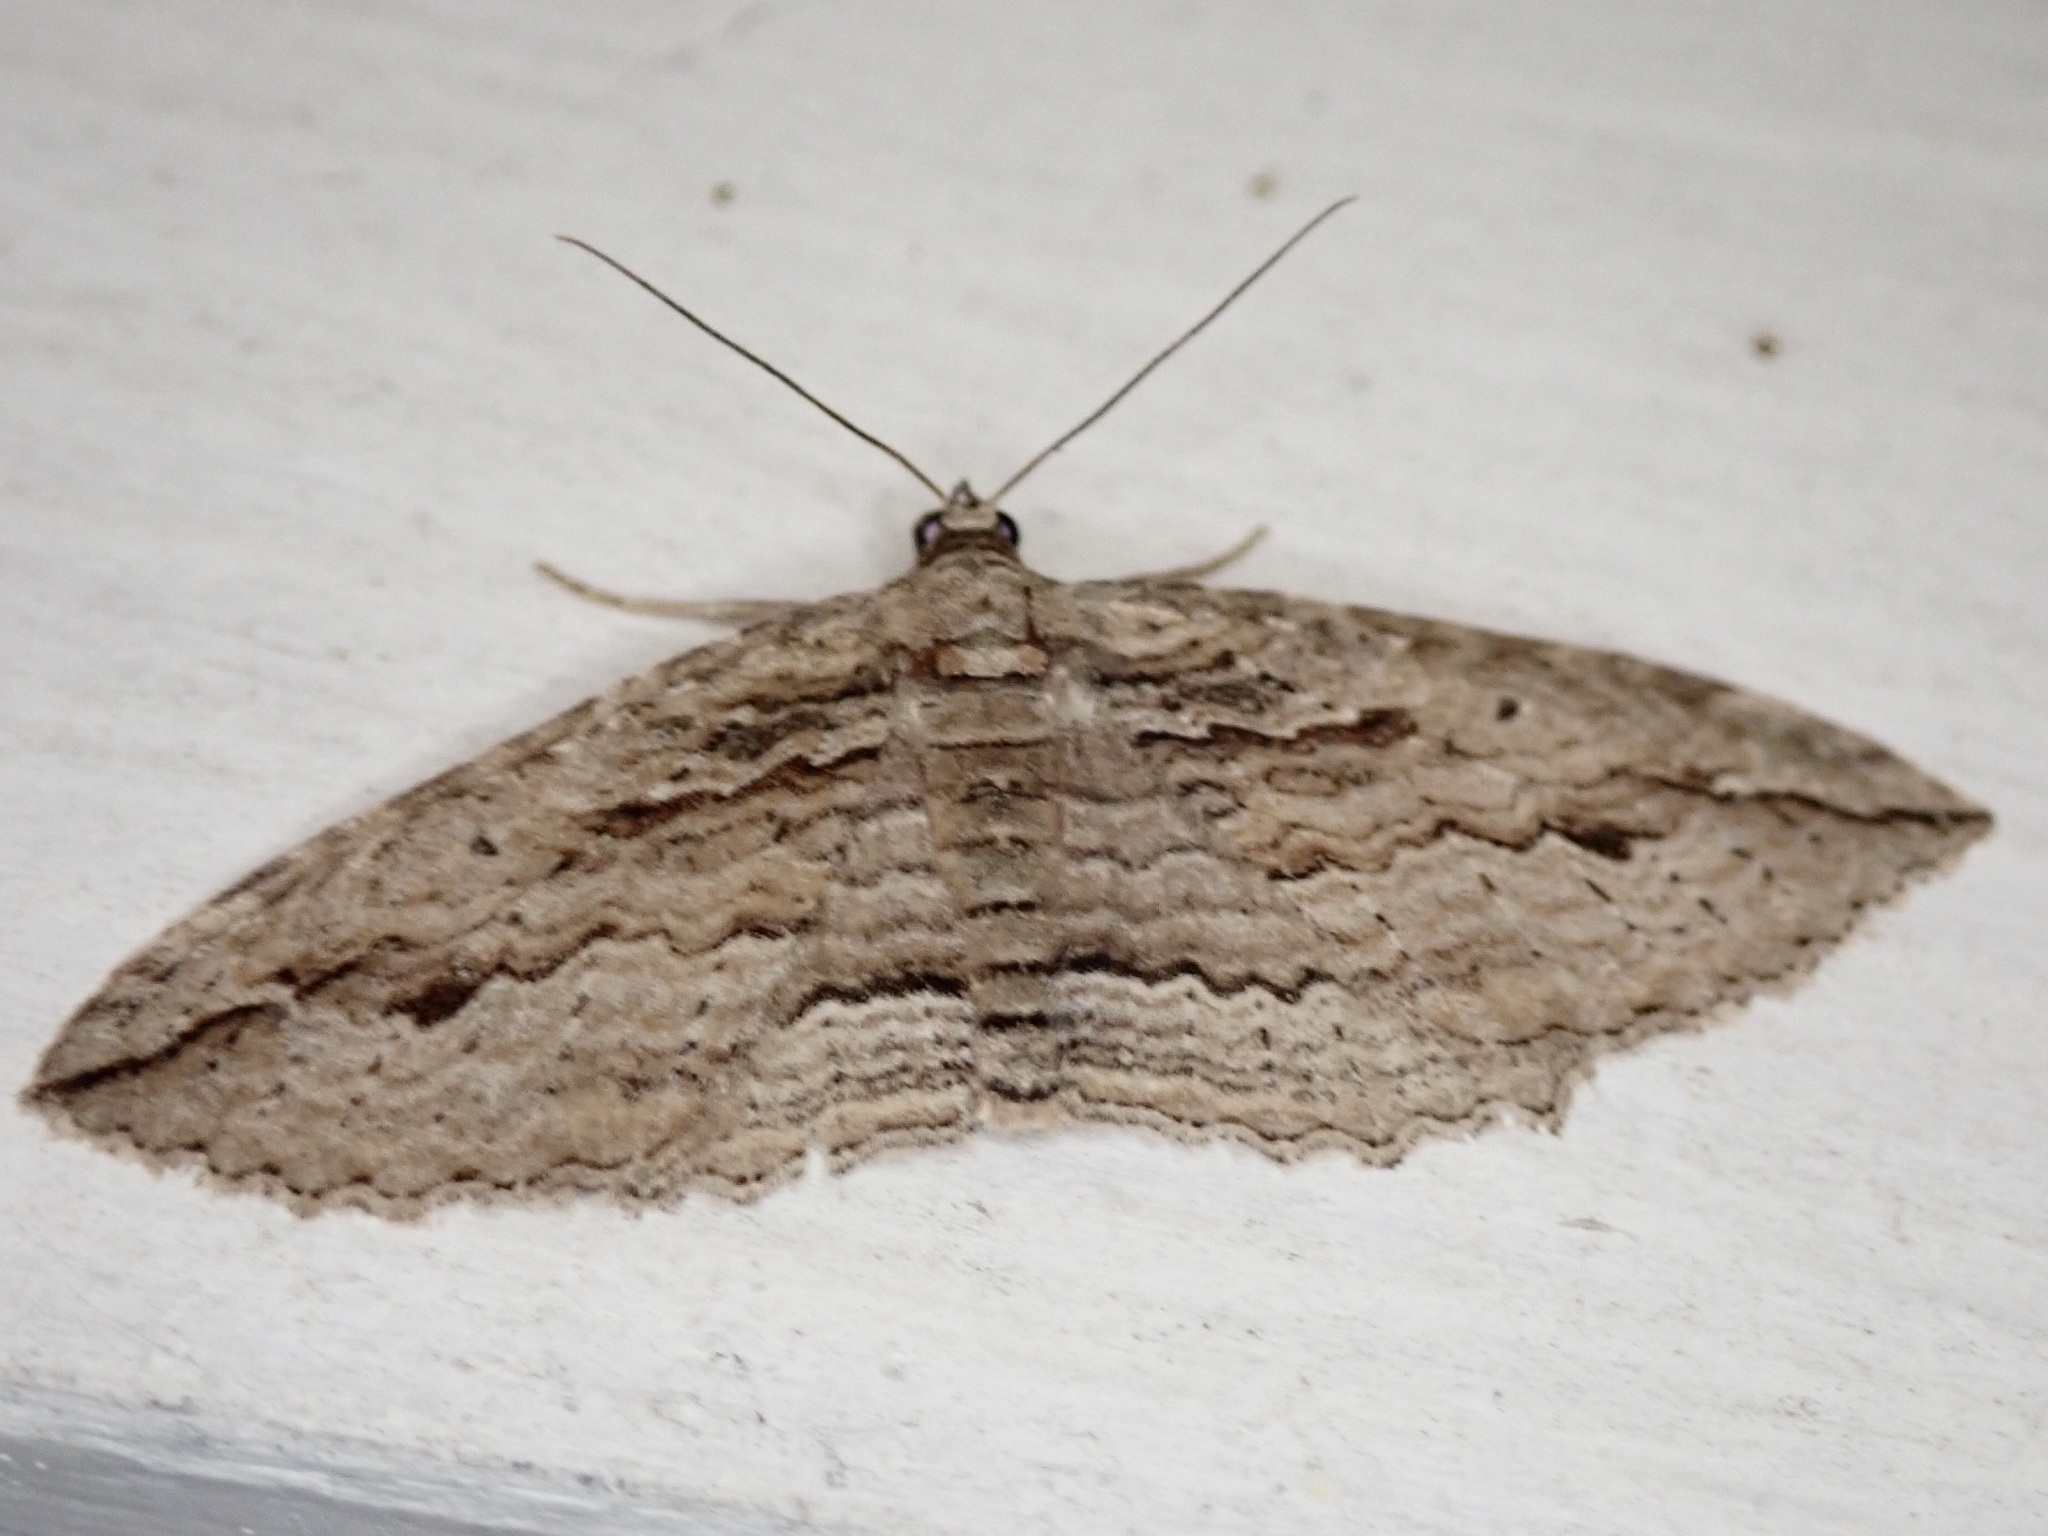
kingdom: Animalia
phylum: Arthropoda
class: Insecta
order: Lepidoptera
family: Geometridae
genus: Austrocidaria
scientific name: Austrocidaria gobiata
